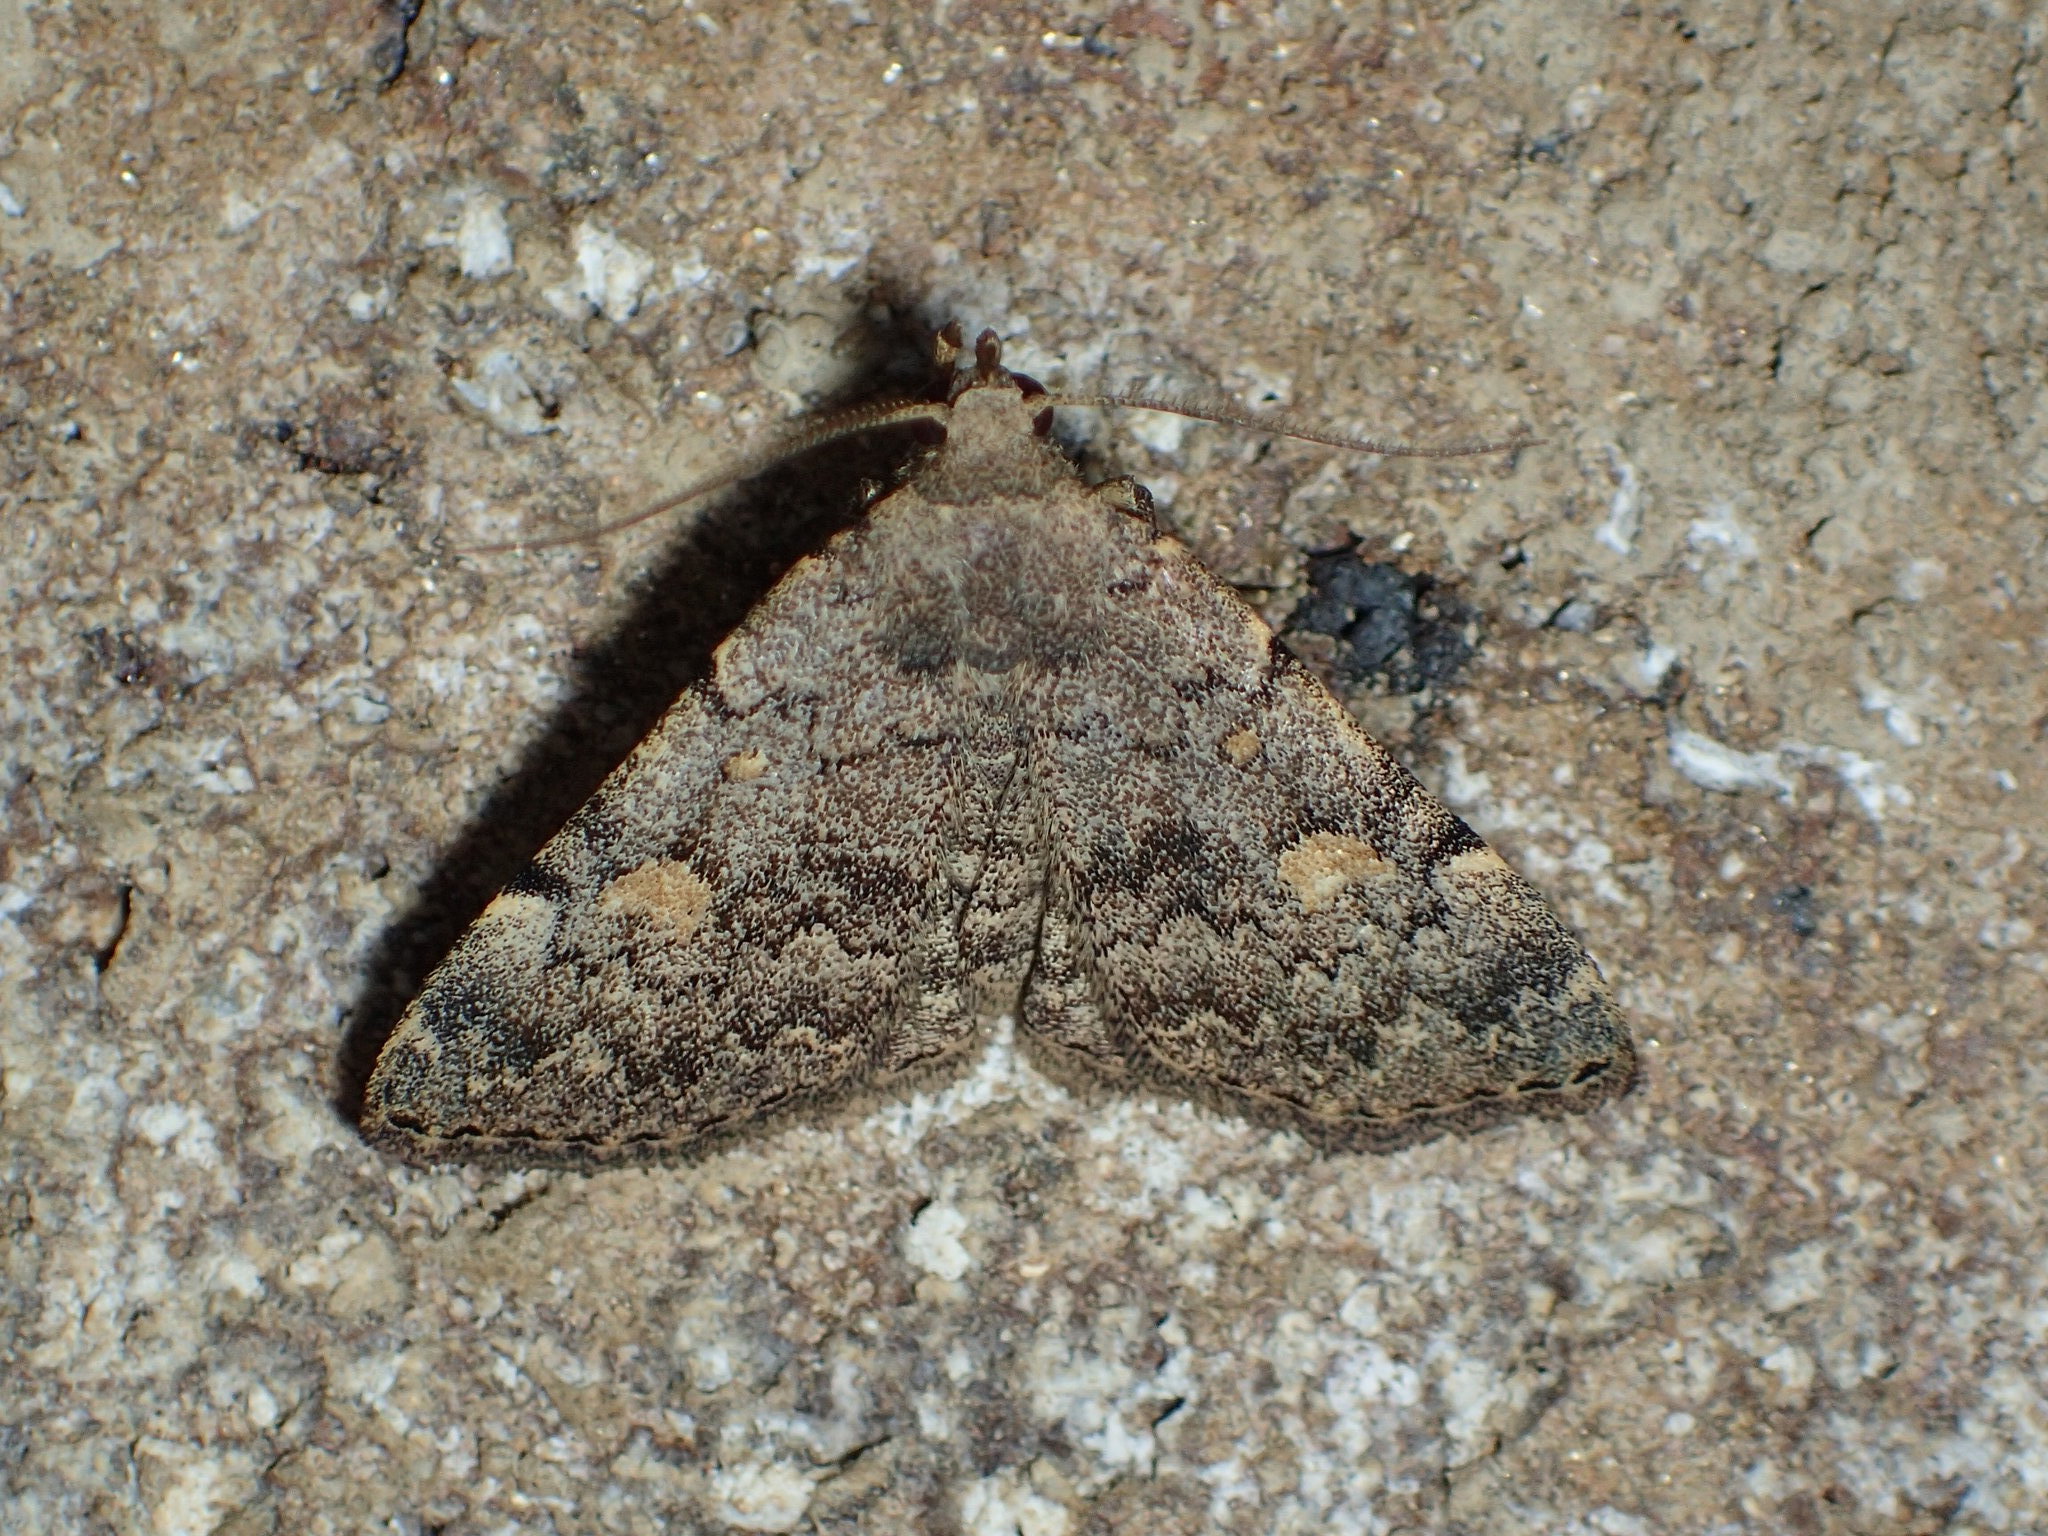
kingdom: Animalia
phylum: Arthropoda
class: Insecta
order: Lepidoptera
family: Erebidae
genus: Idia
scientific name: Idia aemula
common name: Common idia moth
